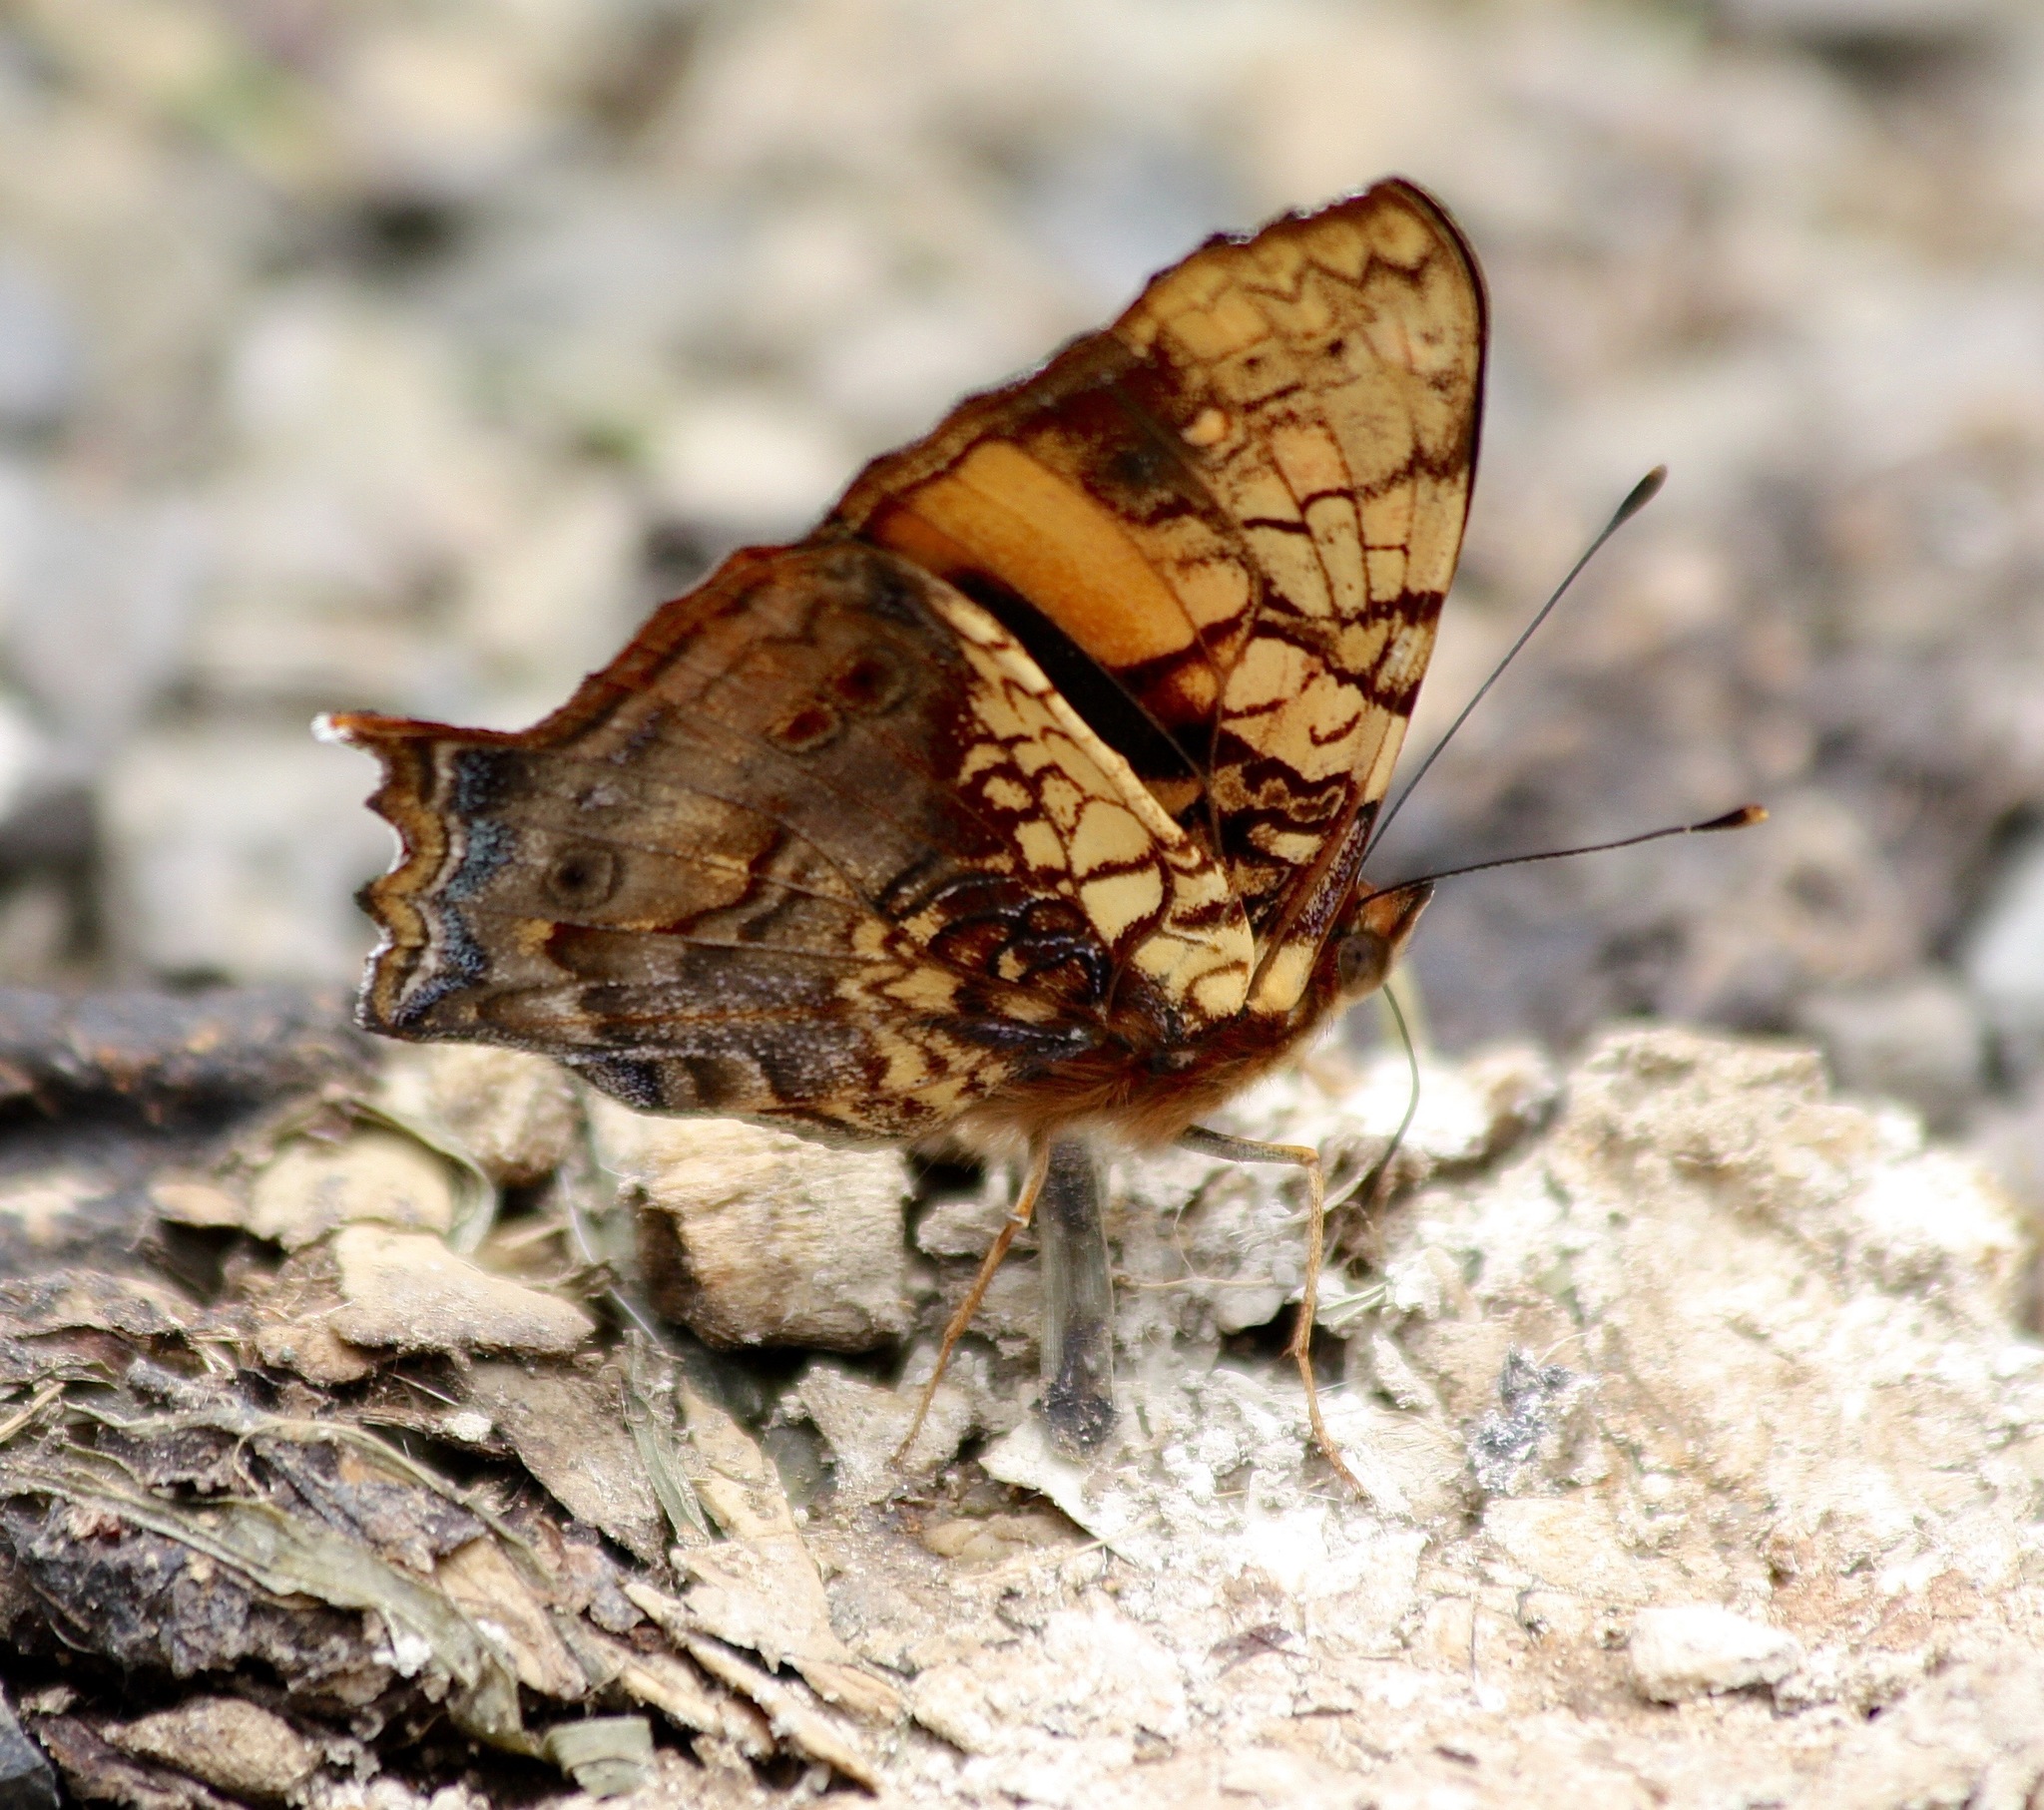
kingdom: Animalia
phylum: Arthropoda
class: Insecta
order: Lepidoptera
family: Nymphalidae
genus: Hypanartia
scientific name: Hypanartia lethe
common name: Orange mapwing
